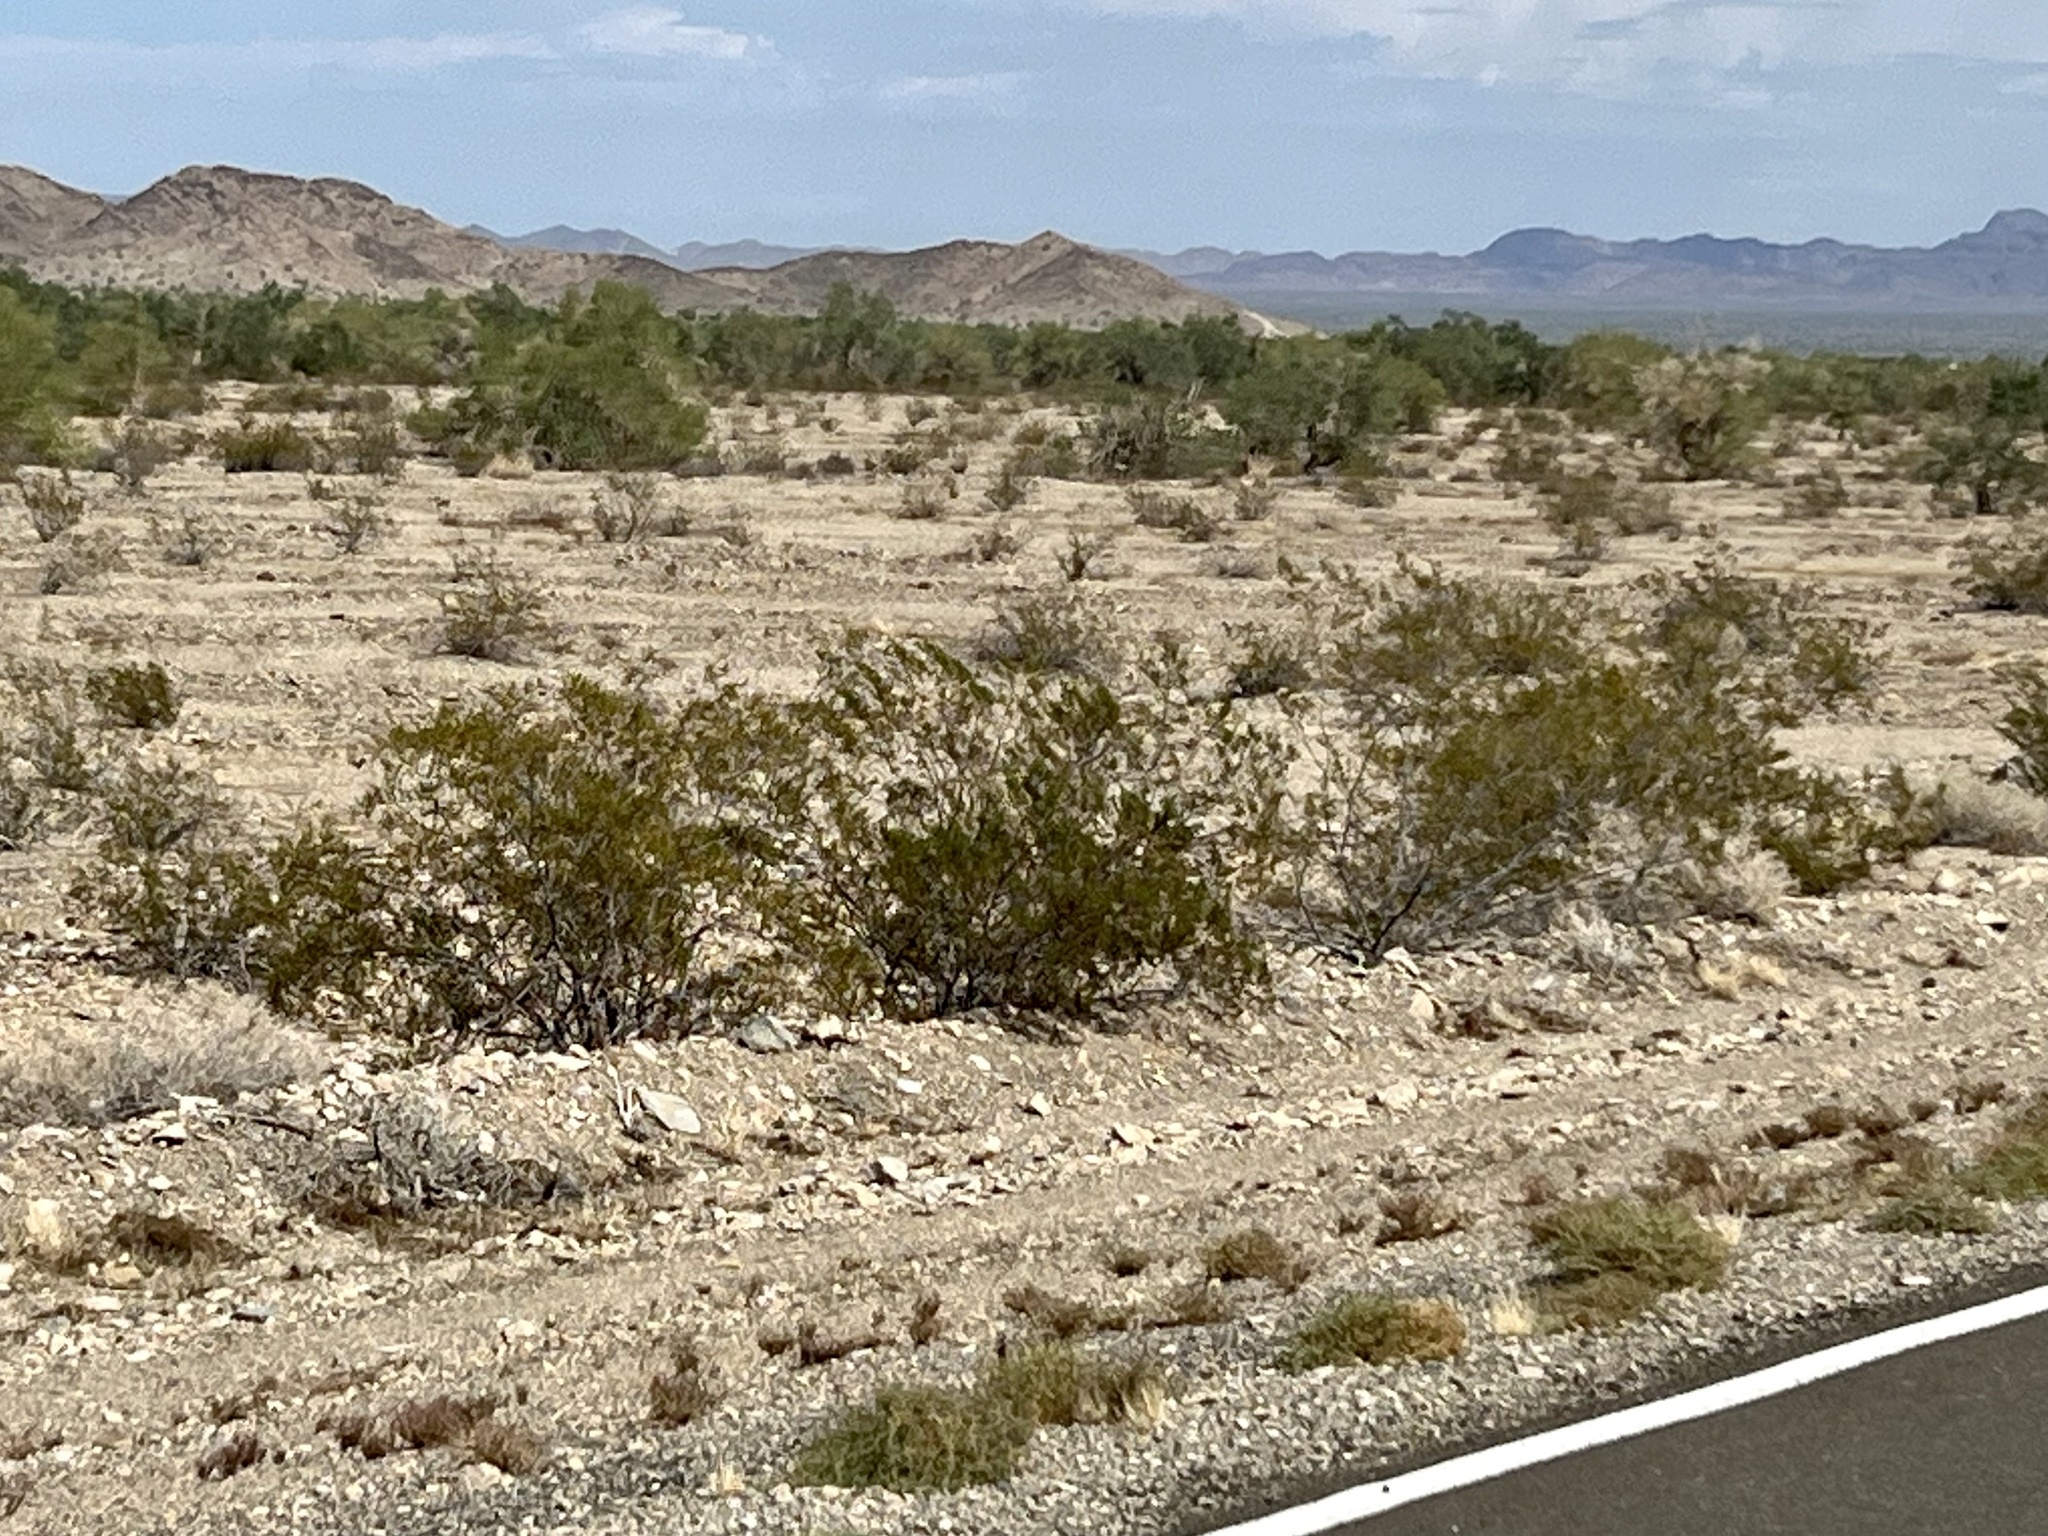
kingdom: Plantae
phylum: Tracheophyta
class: Magnoliopsida
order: Zygophyllales
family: Zygophyllaceae
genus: Larrea
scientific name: Larrea tridentata
